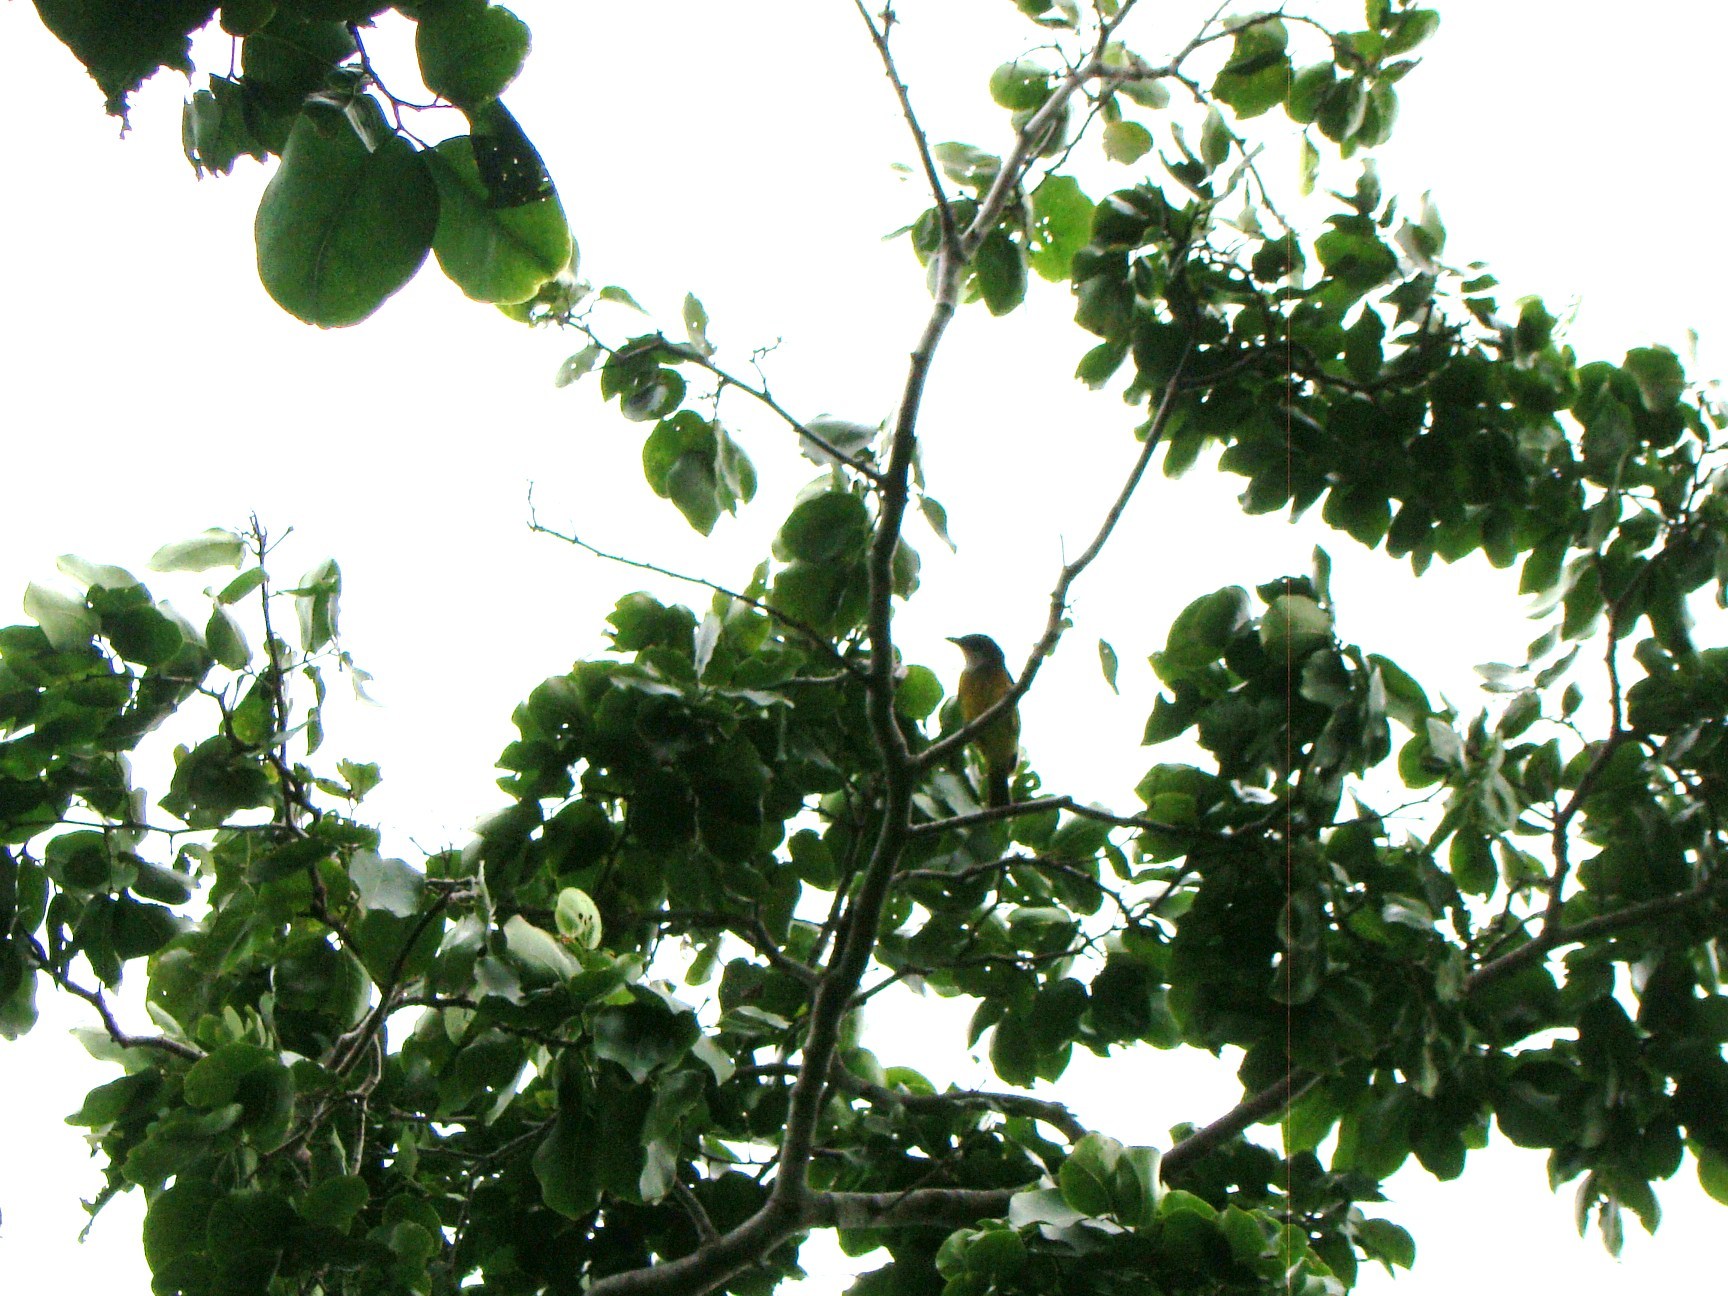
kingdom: Animalia
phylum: Chordata
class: Aves
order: Passeriformes
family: Pachycephalidae
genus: Pachycephala
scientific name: Pachycephala chlorura
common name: Melanesian whistler
